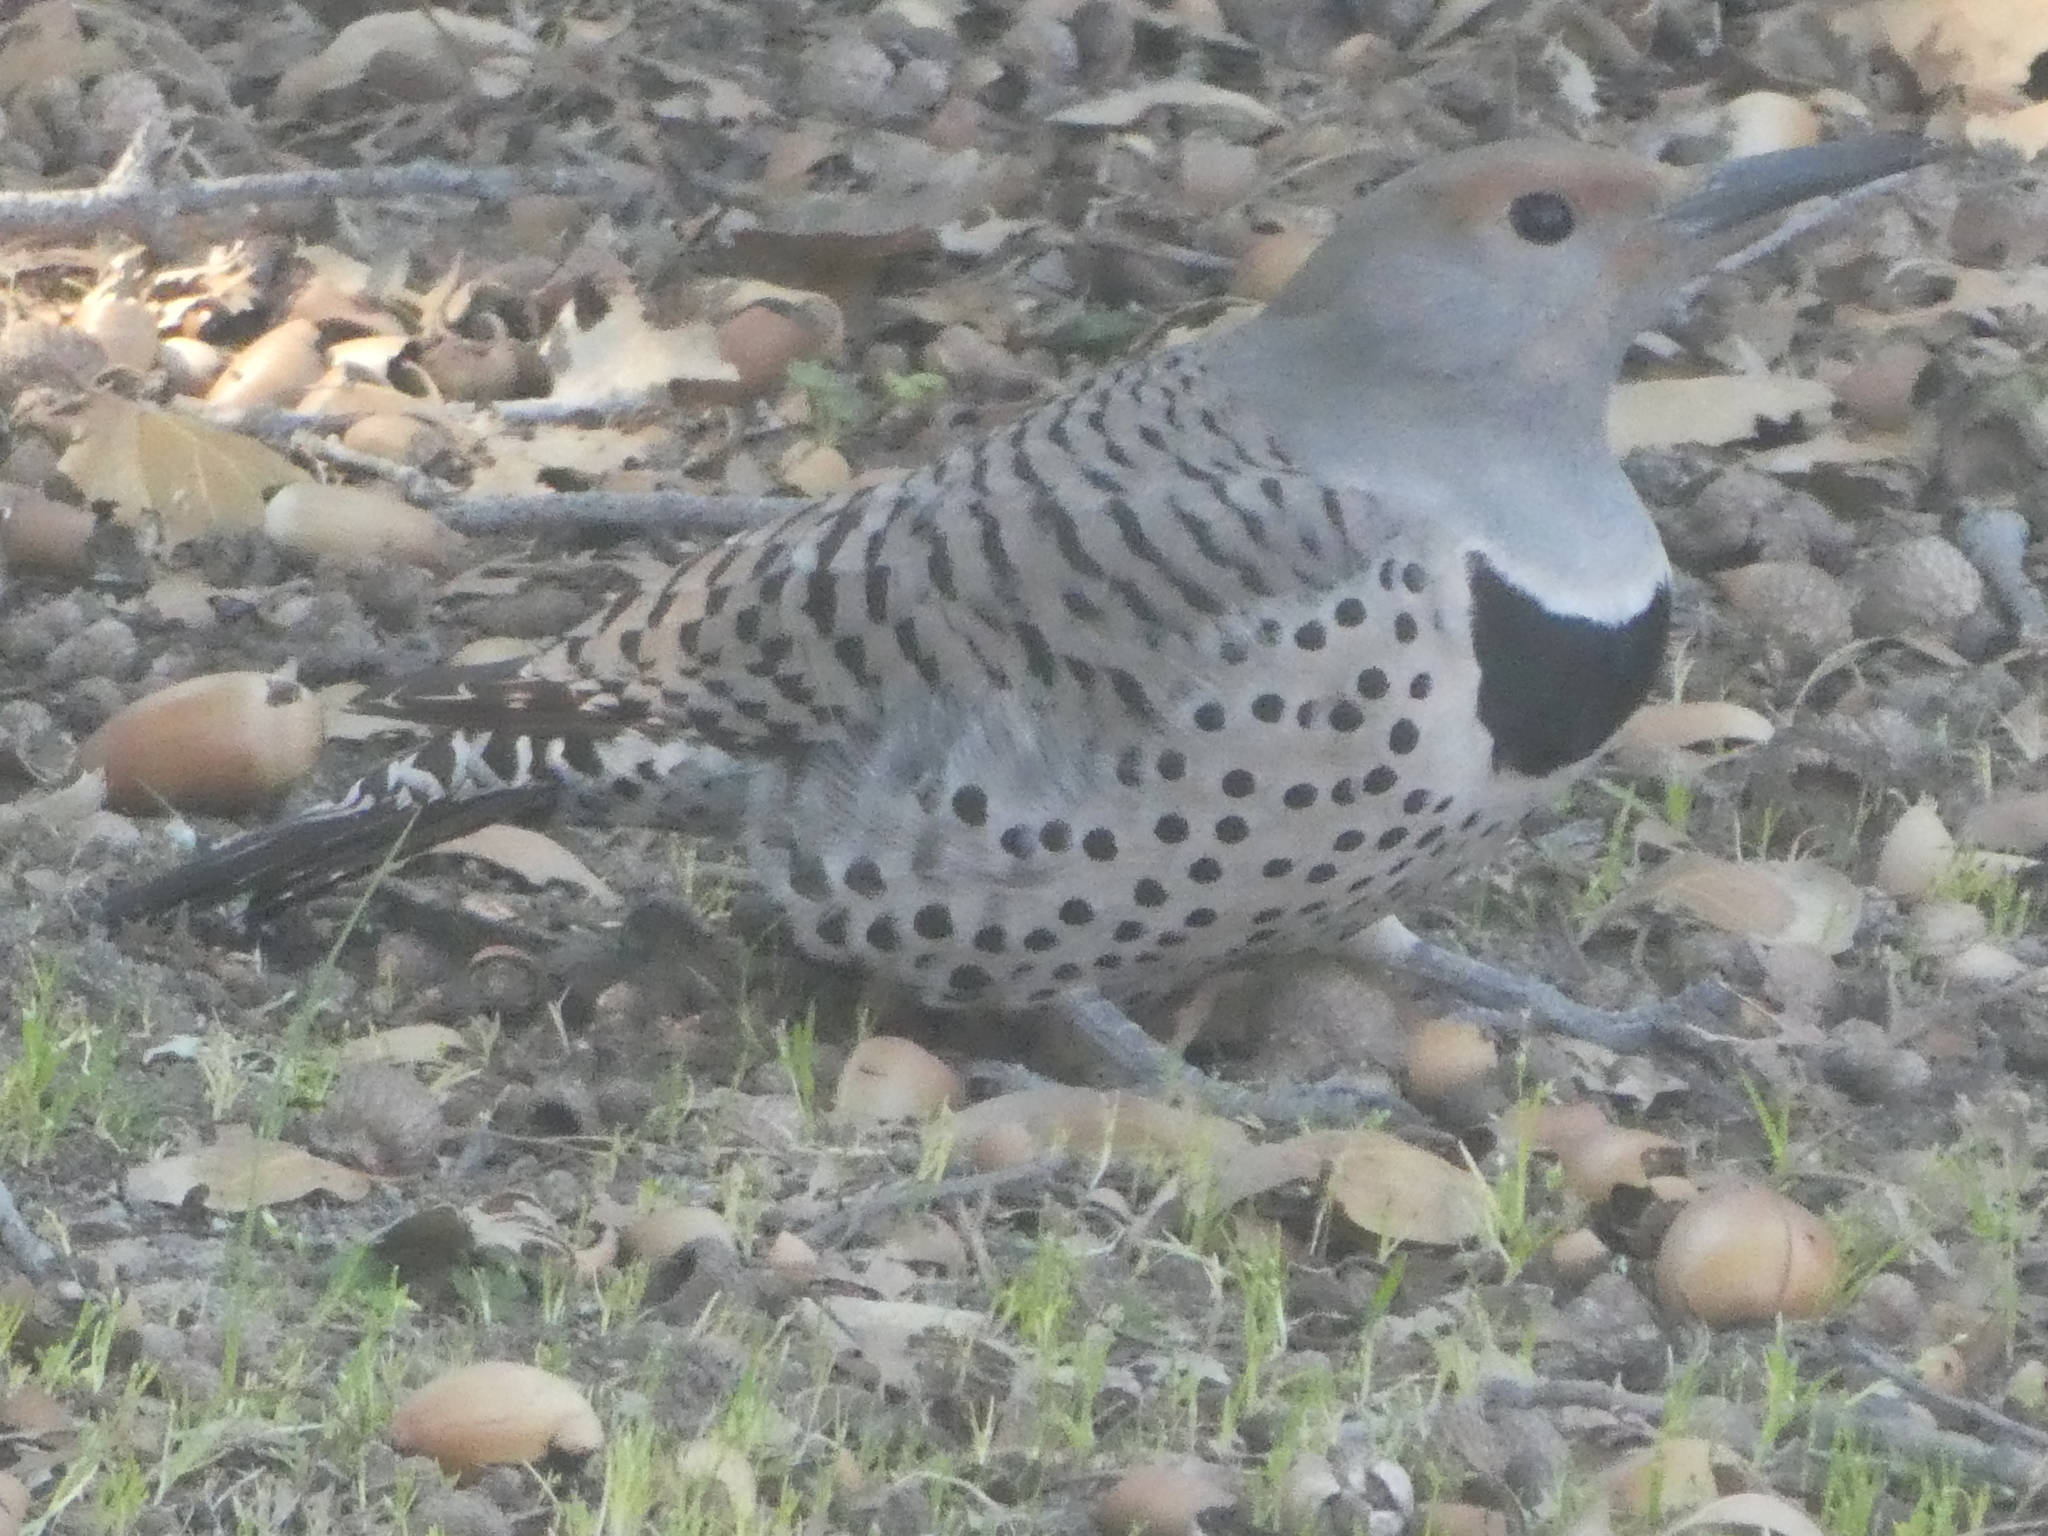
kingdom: Animalia
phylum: Chordata
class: Aves
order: Piciformes
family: Picidae
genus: Colaptes
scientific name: Colaptes auratus
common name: Northern flicker
